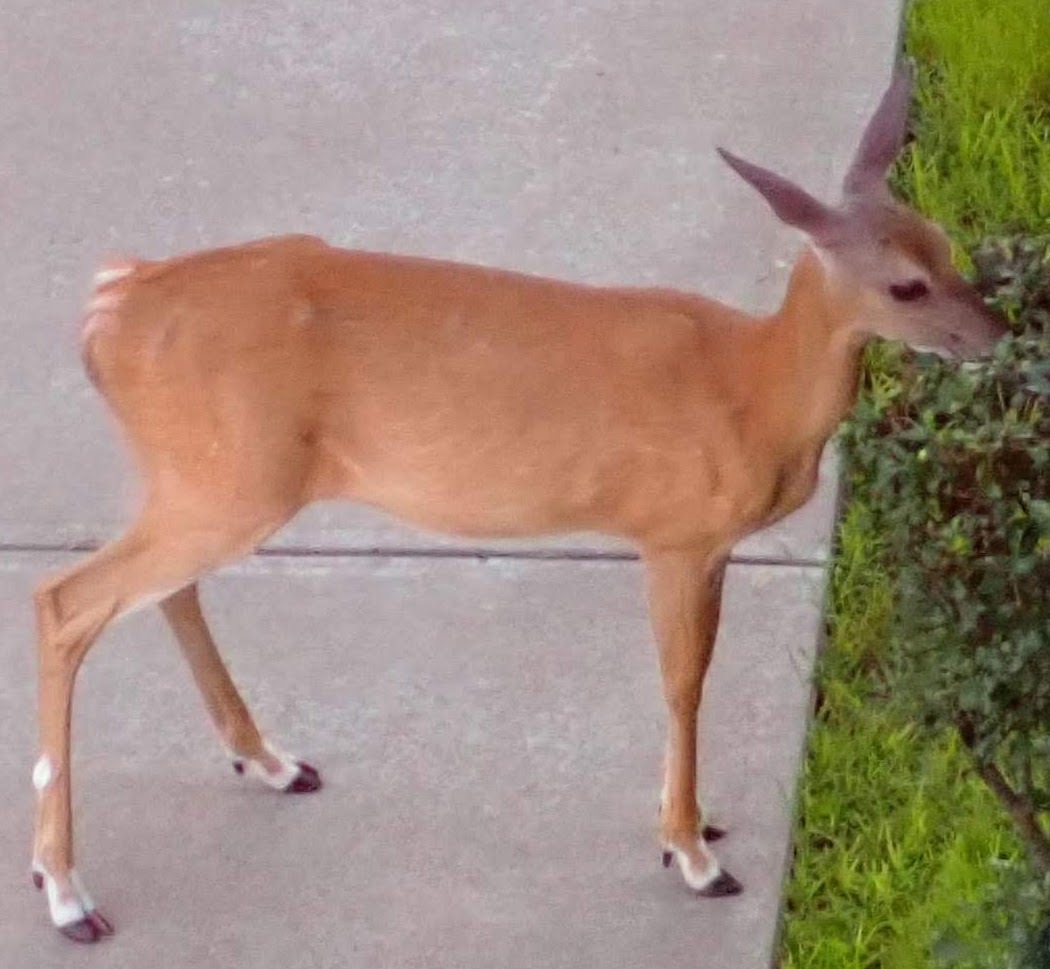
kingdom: Animalia
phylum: Chordata
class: Mammalia
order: Artiodactyla
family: Cervidae
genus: Odocoileus
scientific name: Odocoileus virginianus
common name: White-tailed deer
